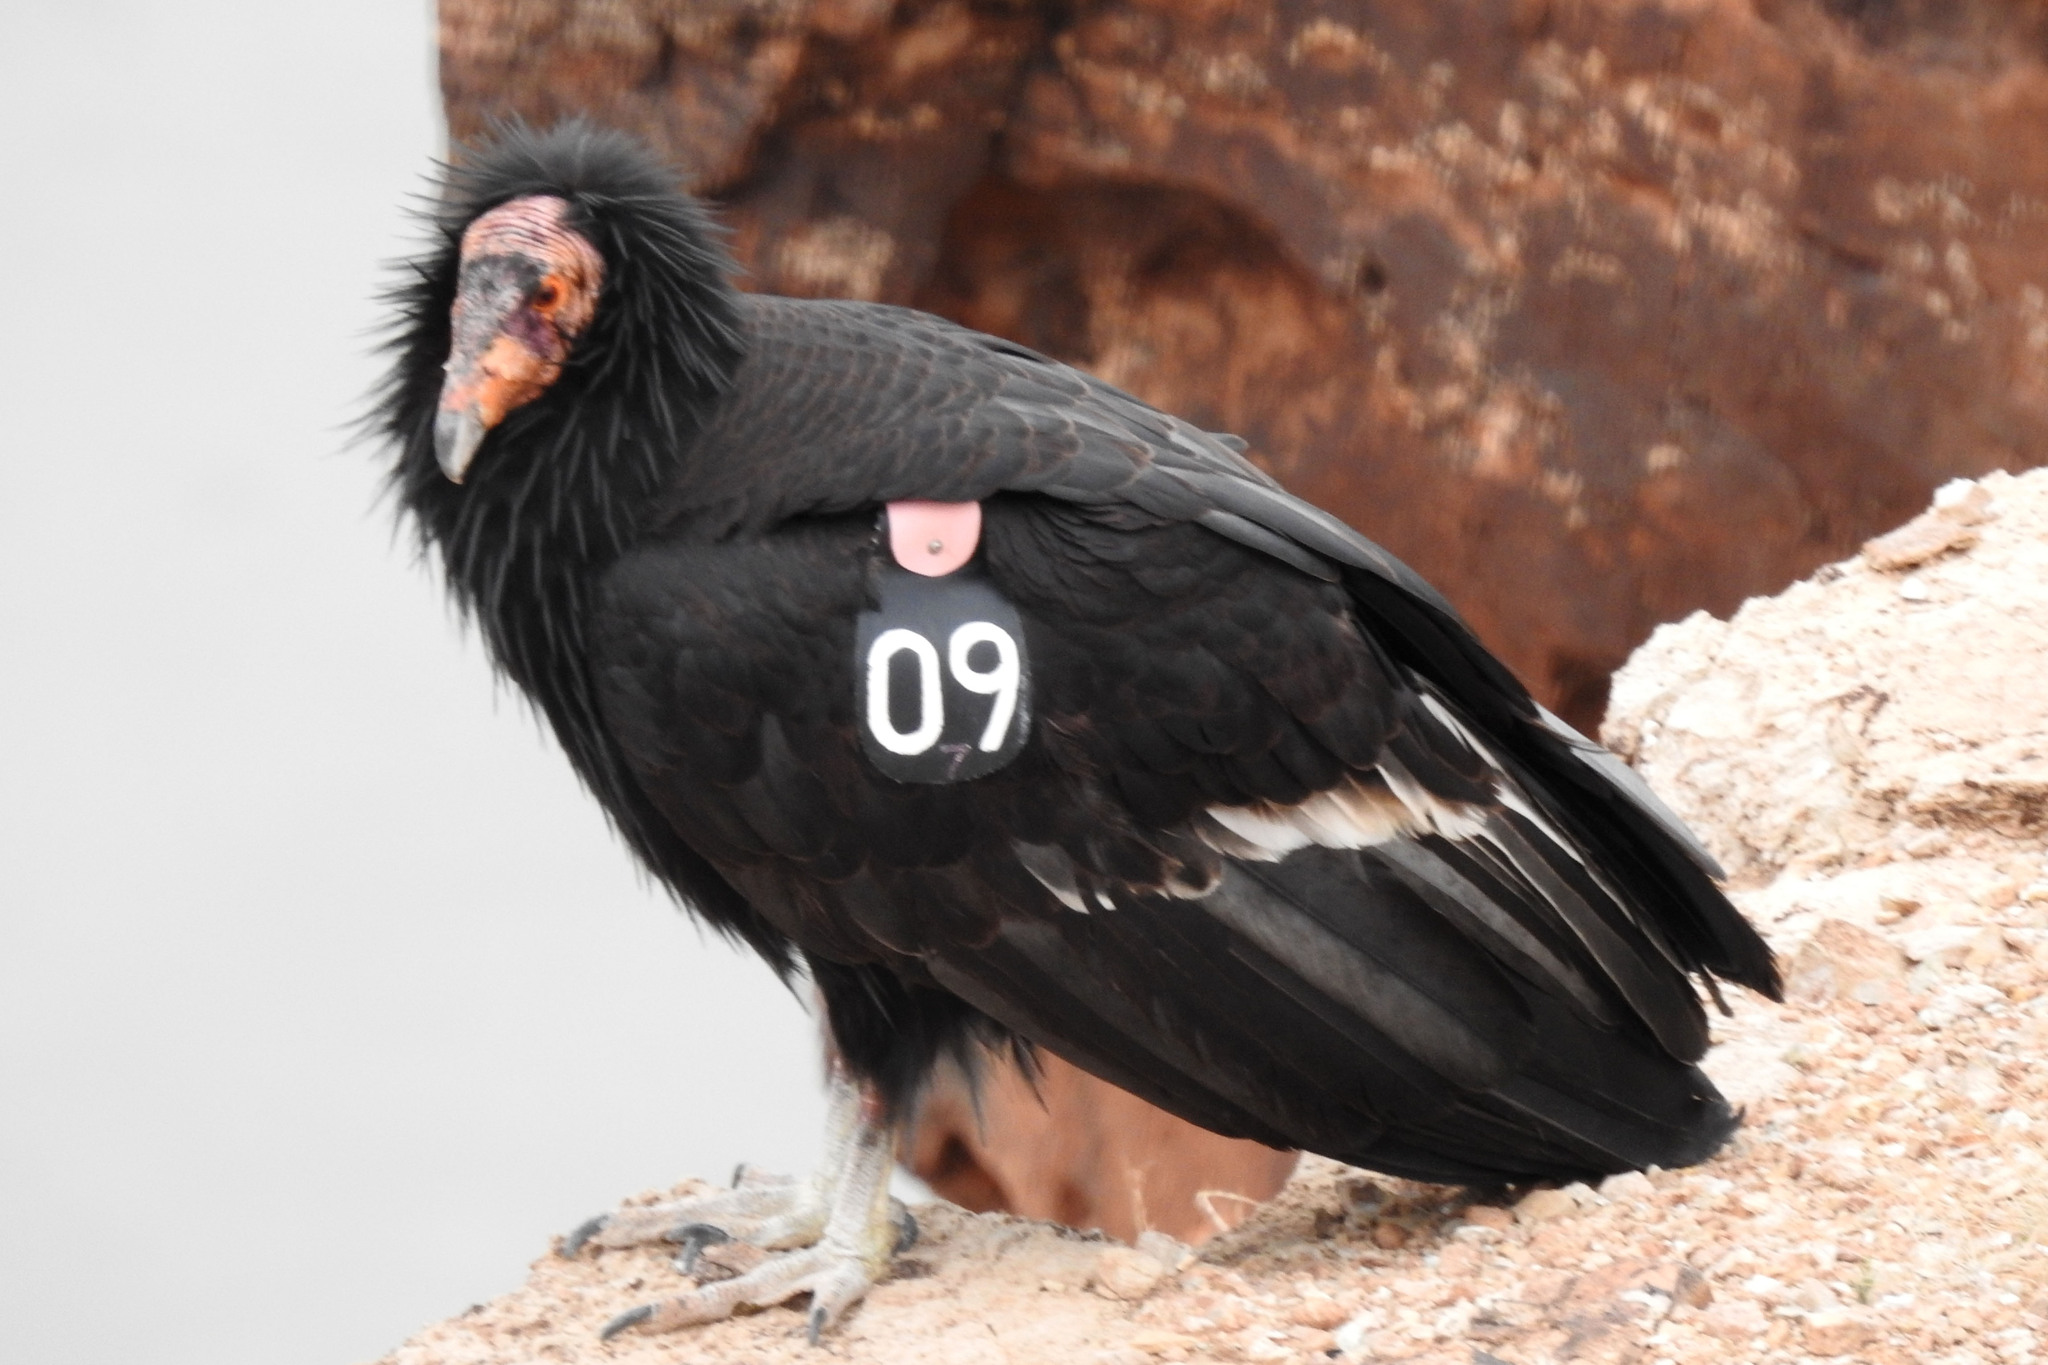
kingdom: Animalia
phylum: Chordata
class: Aves
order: Accipitriformes
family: Cathartidae
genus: Gymnogyps
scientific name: Gymnogyps californianus
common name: California condor
